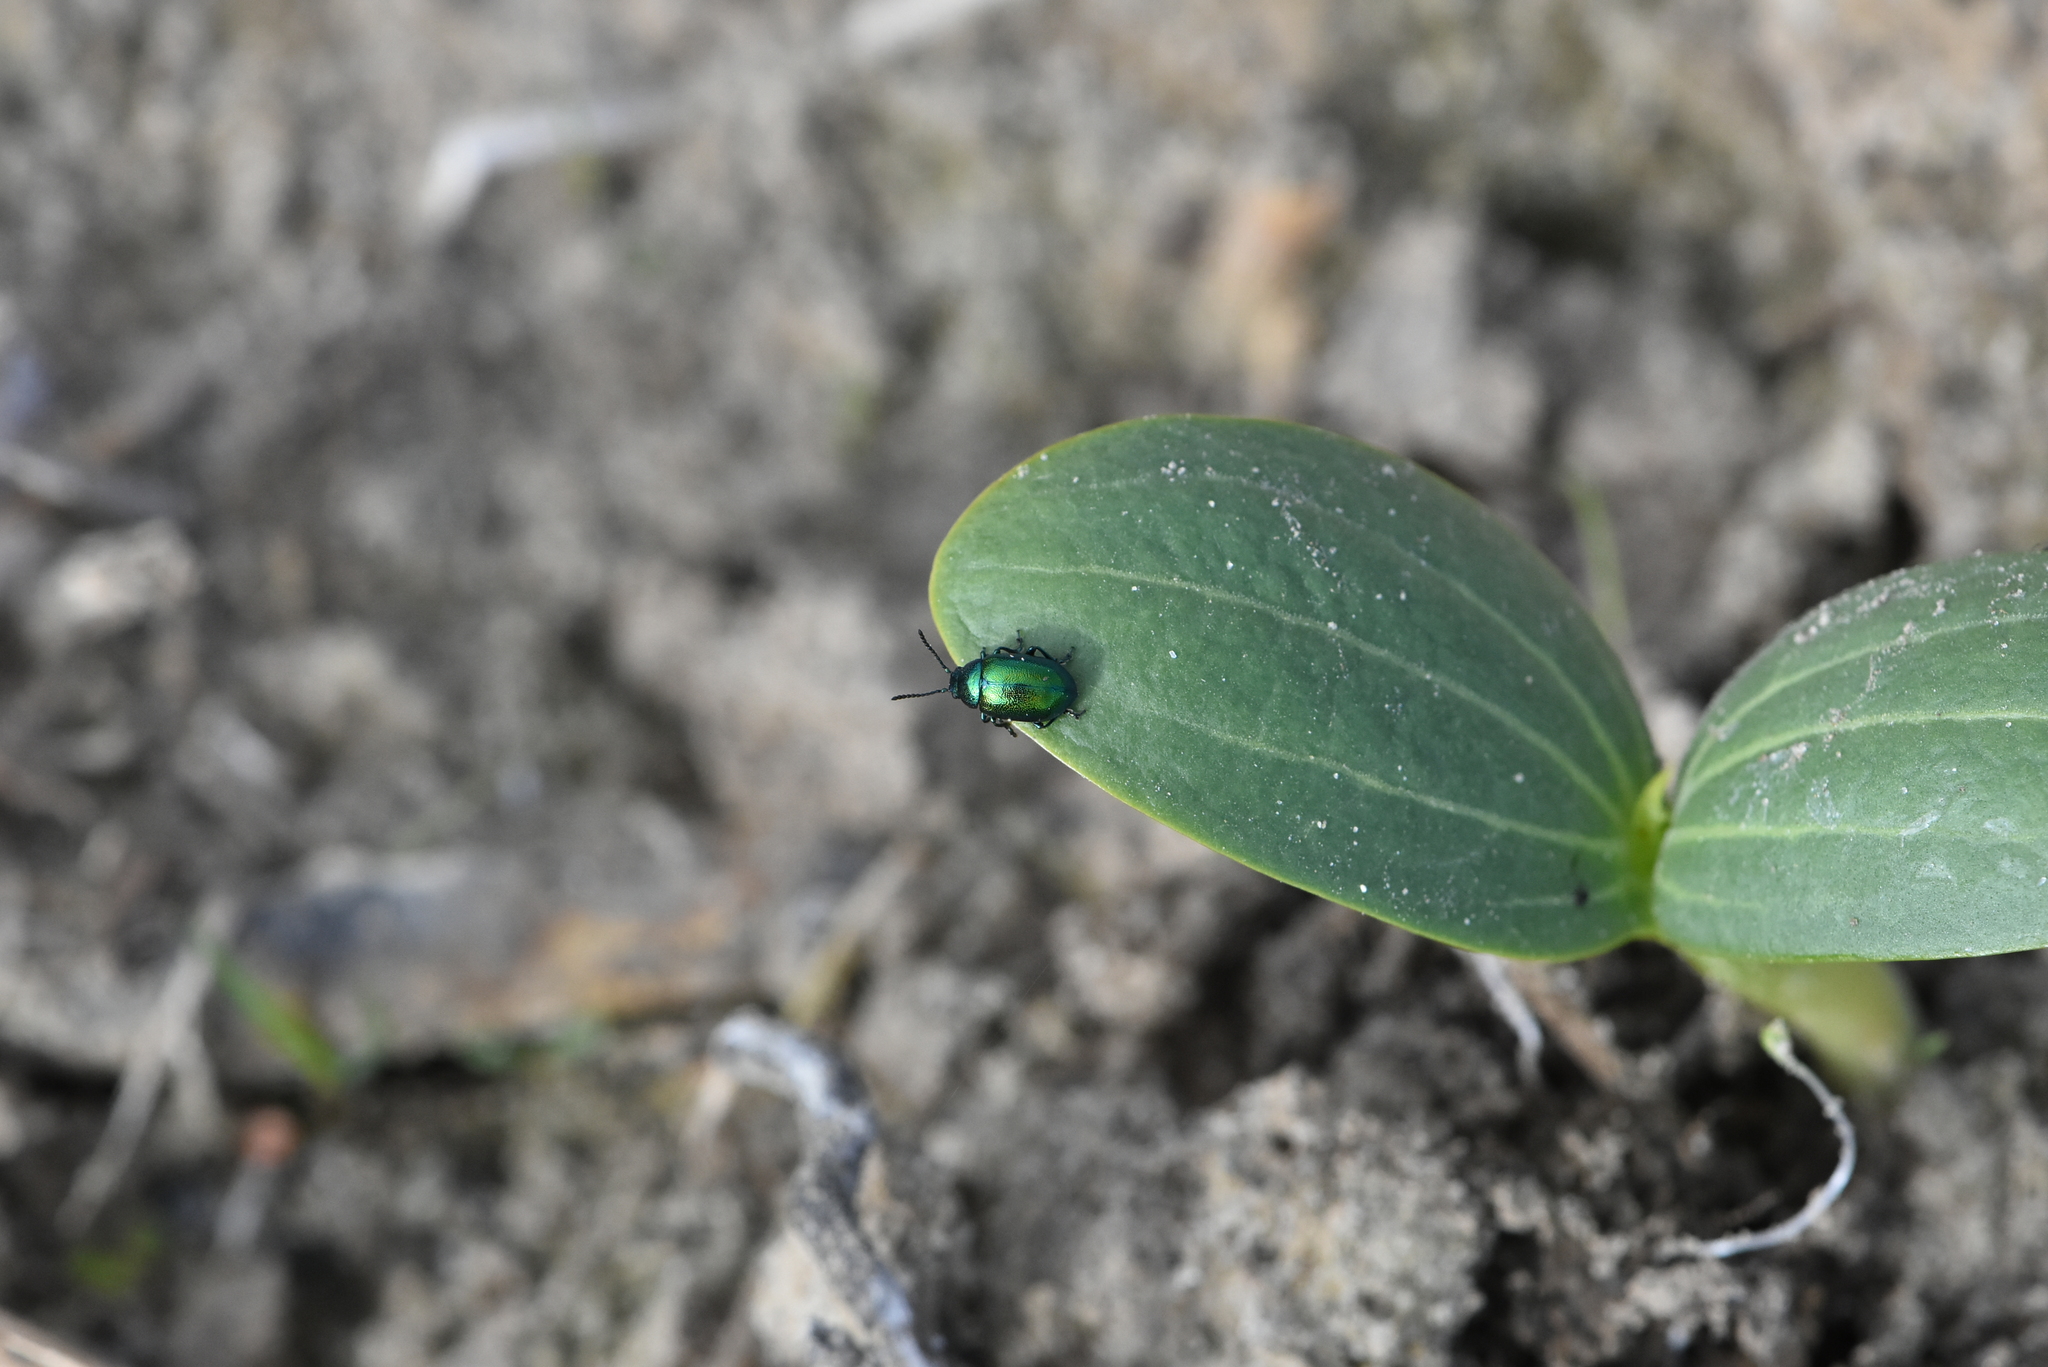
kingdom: Animalia
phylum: Arthropoda
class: Insecta
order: Coleoptera
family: Chrysomelidae
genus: Gastrophysa
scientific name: Gastrophysa viridula
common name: Green dock beetle
